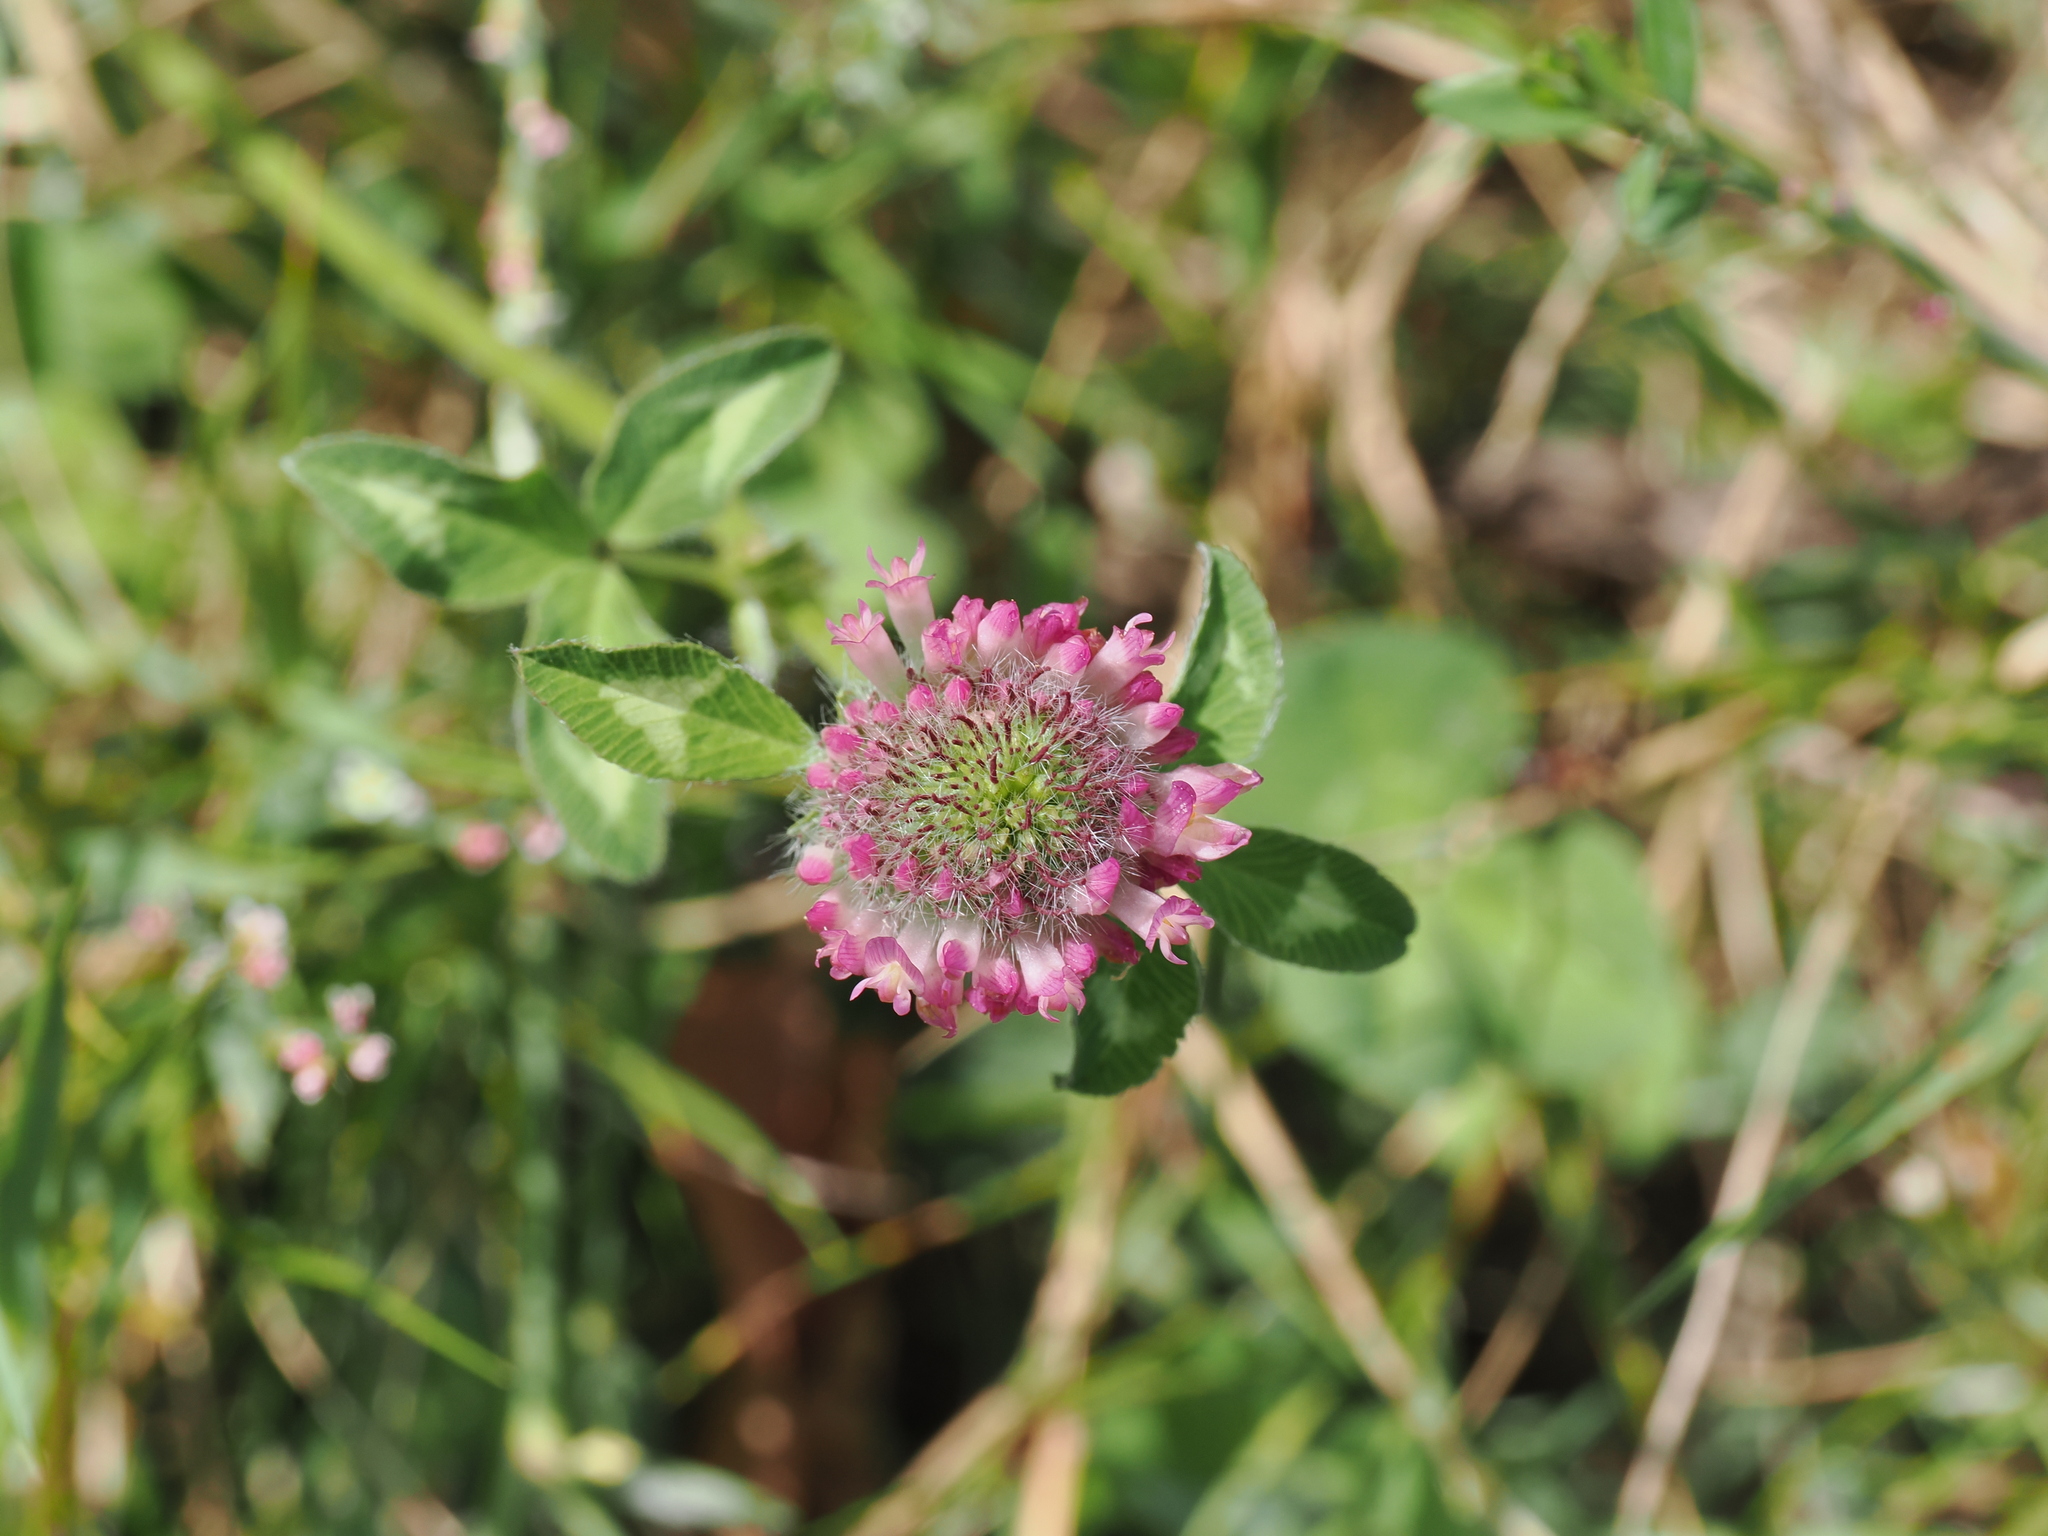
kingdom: Plantae
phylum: Tracheophyta
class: Magnoliopsida
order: Fabales
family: Fabaceae
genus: Trifolium
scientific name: Trifolium pratense
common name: Red clover
